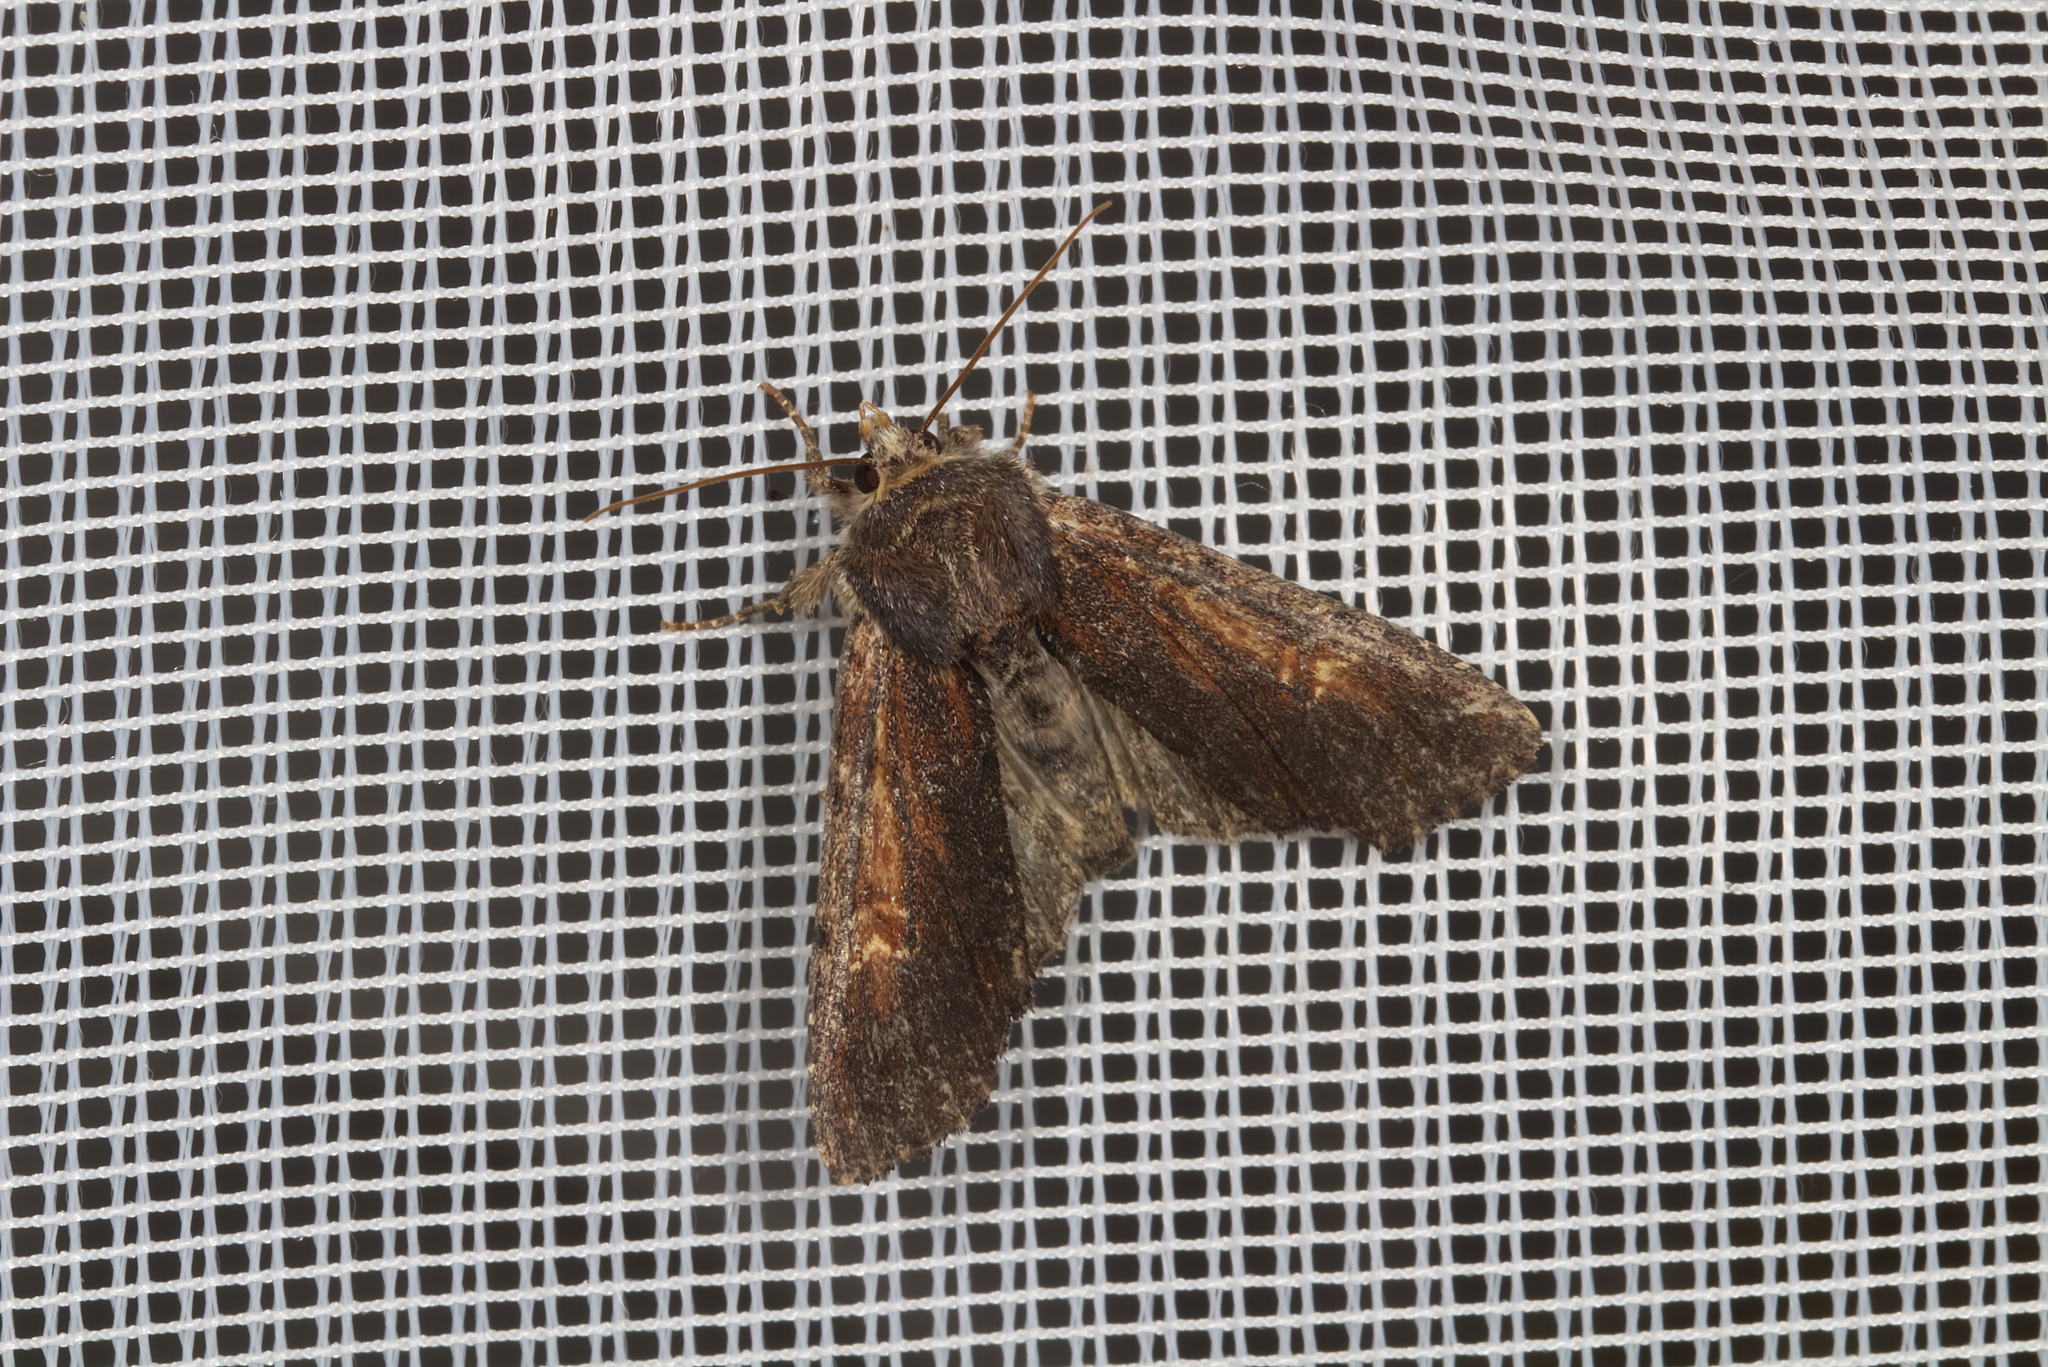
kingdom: Animalia
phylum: Arthropoda
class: Insecta
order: Lepidoptera
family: Noctuidae
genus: Apamea
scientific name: Apamea crenata
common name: Clouded-bordered brindle
